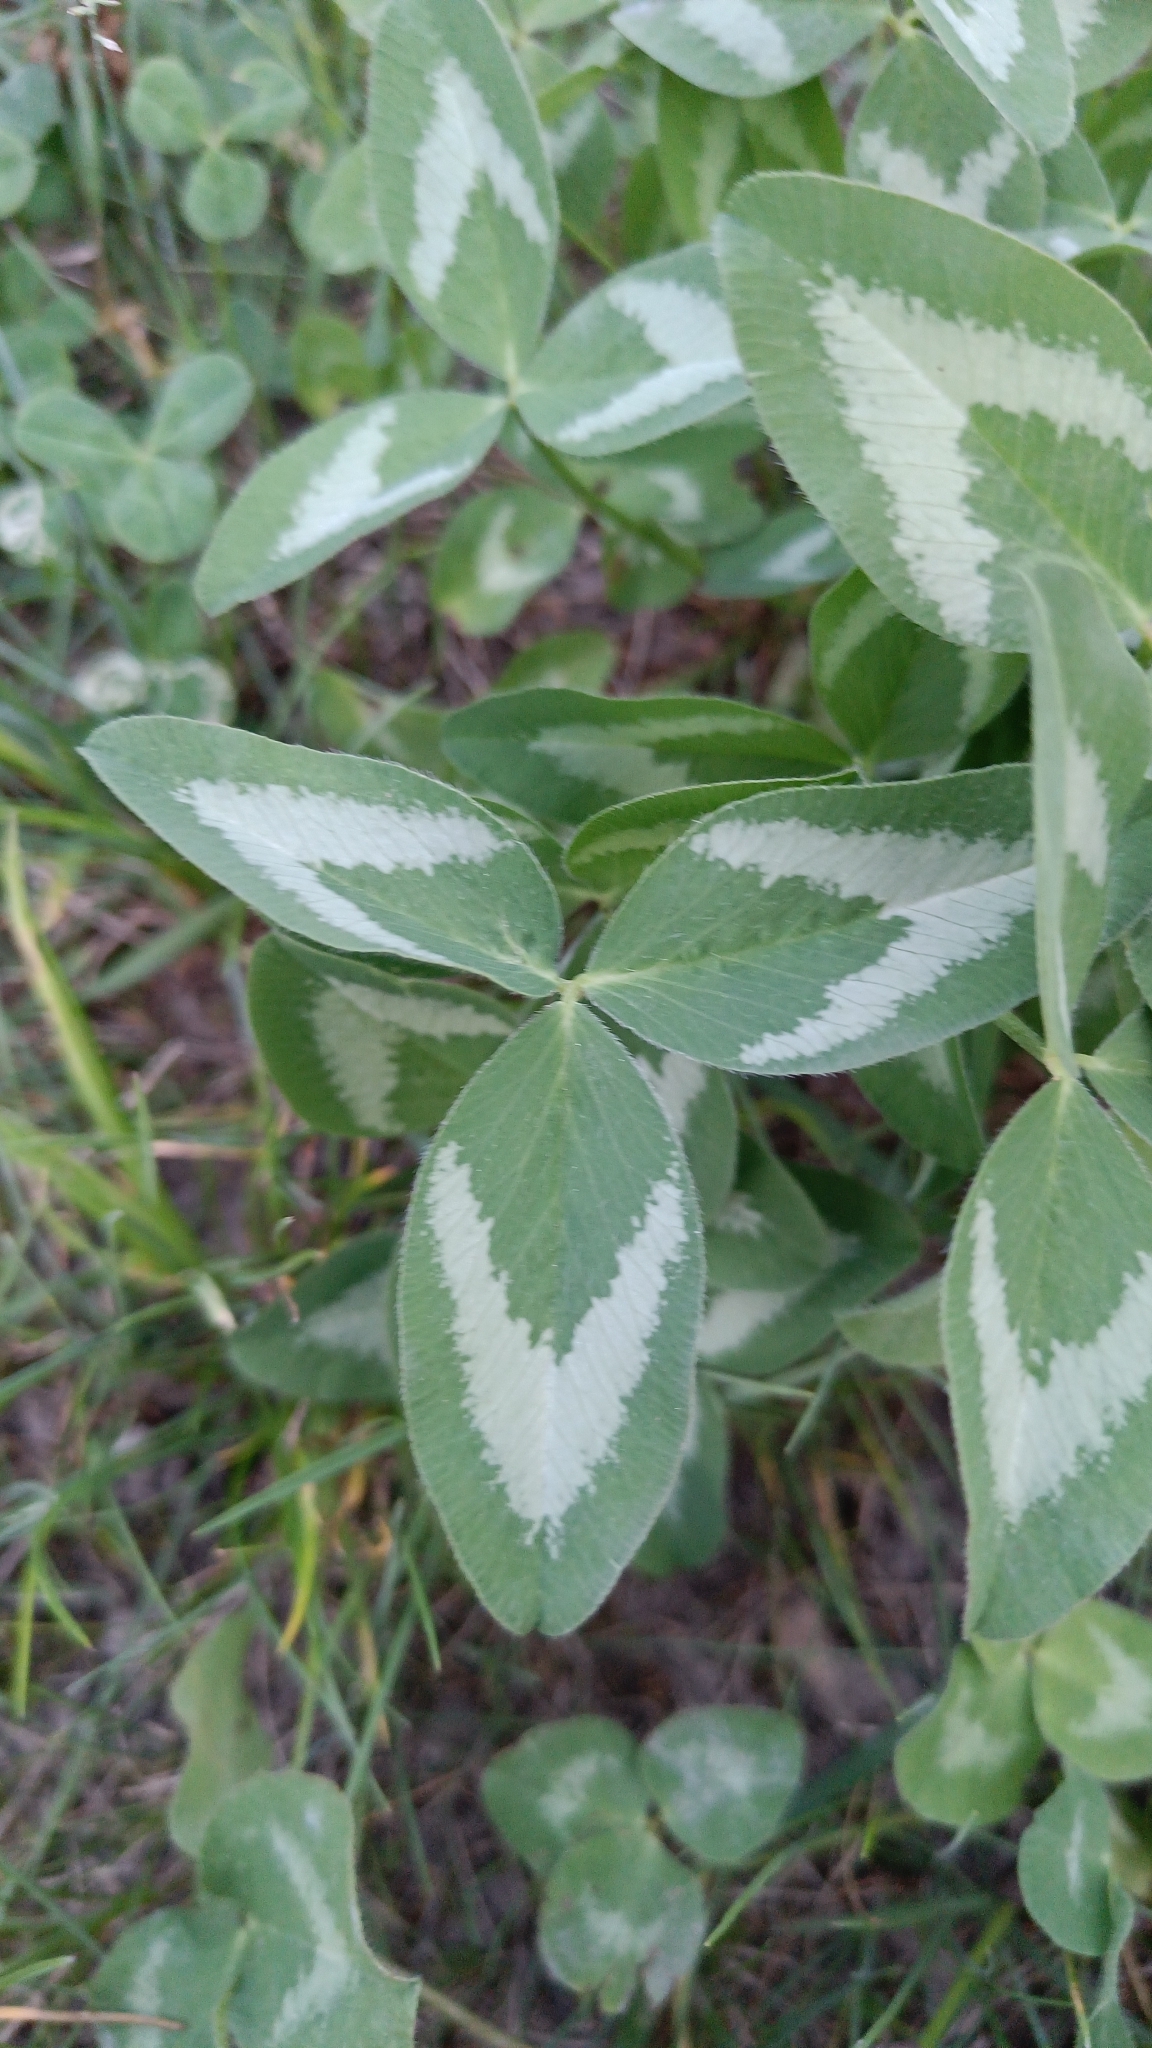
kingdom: Plantae
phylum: Tracheophyta
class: Magnoliopsida
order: Fabales
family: Fabaceae
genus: Trifolium
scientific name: Trifolium pratense
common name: Red clover
